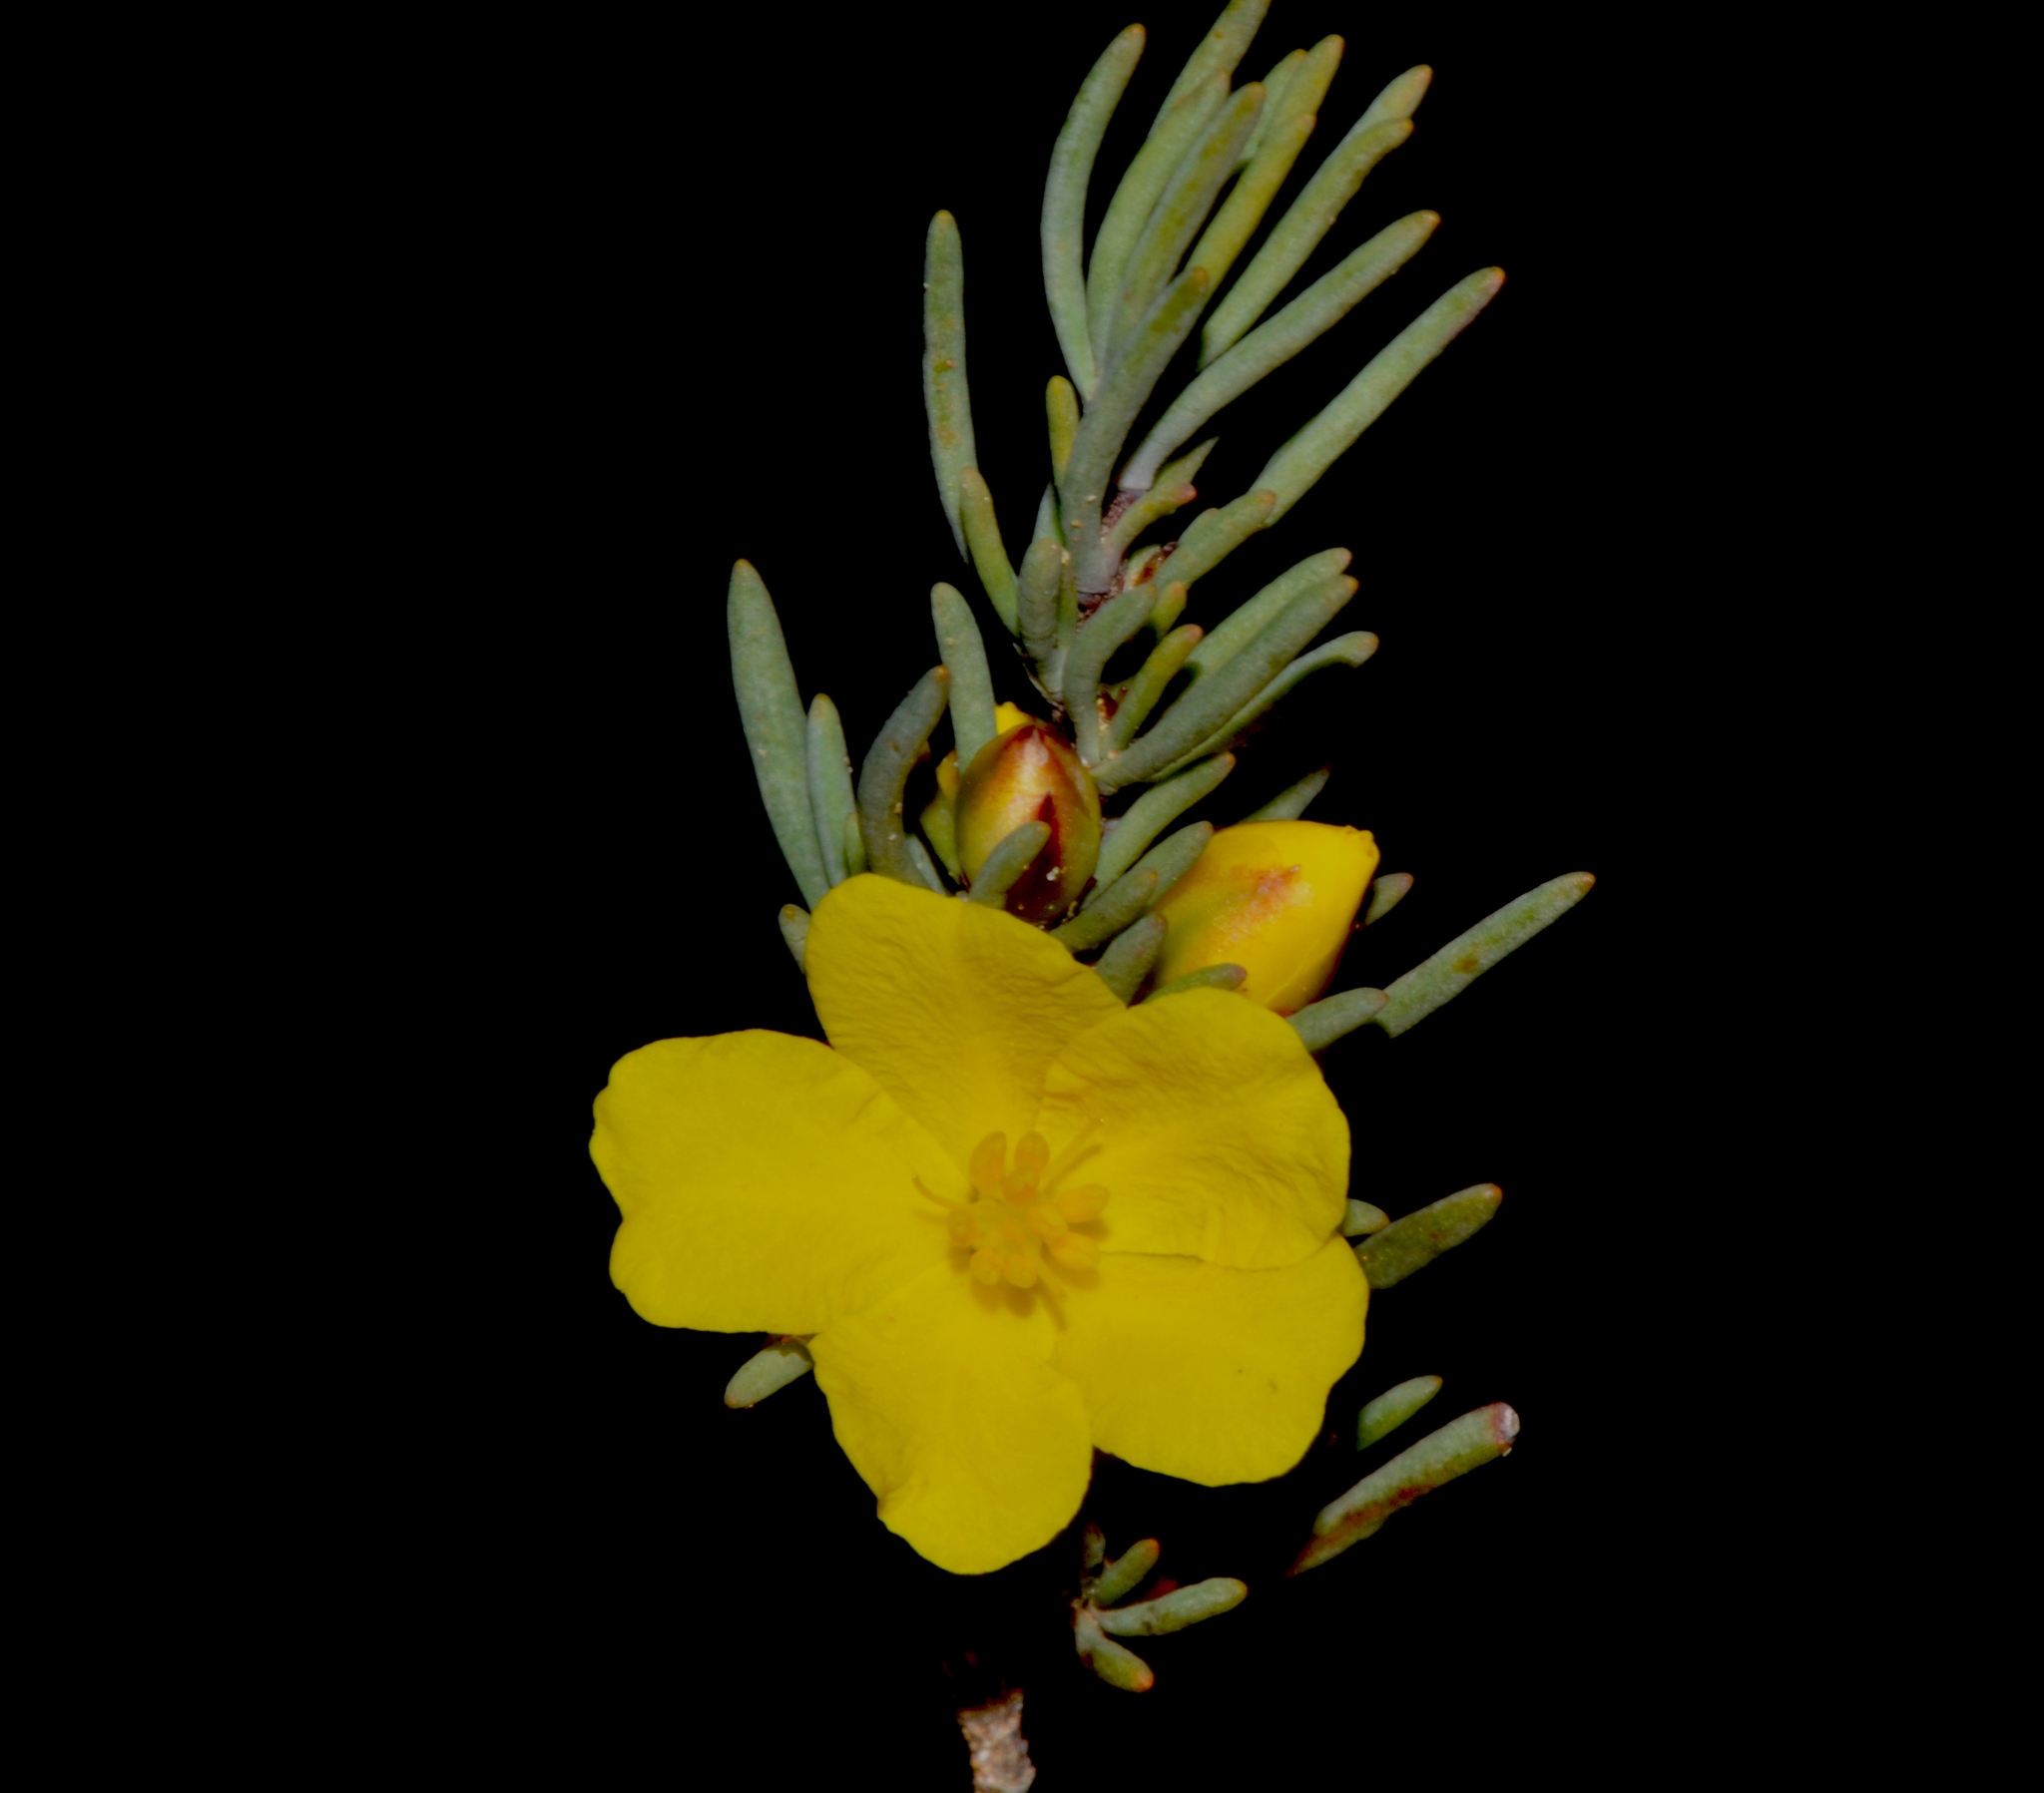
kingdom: Plantae
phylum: Tracheophyta
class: Magnoliopsida
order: Dilleniales
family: Dilleniaceae
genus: Hibbertia
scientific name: Hibbertia hemignosta
